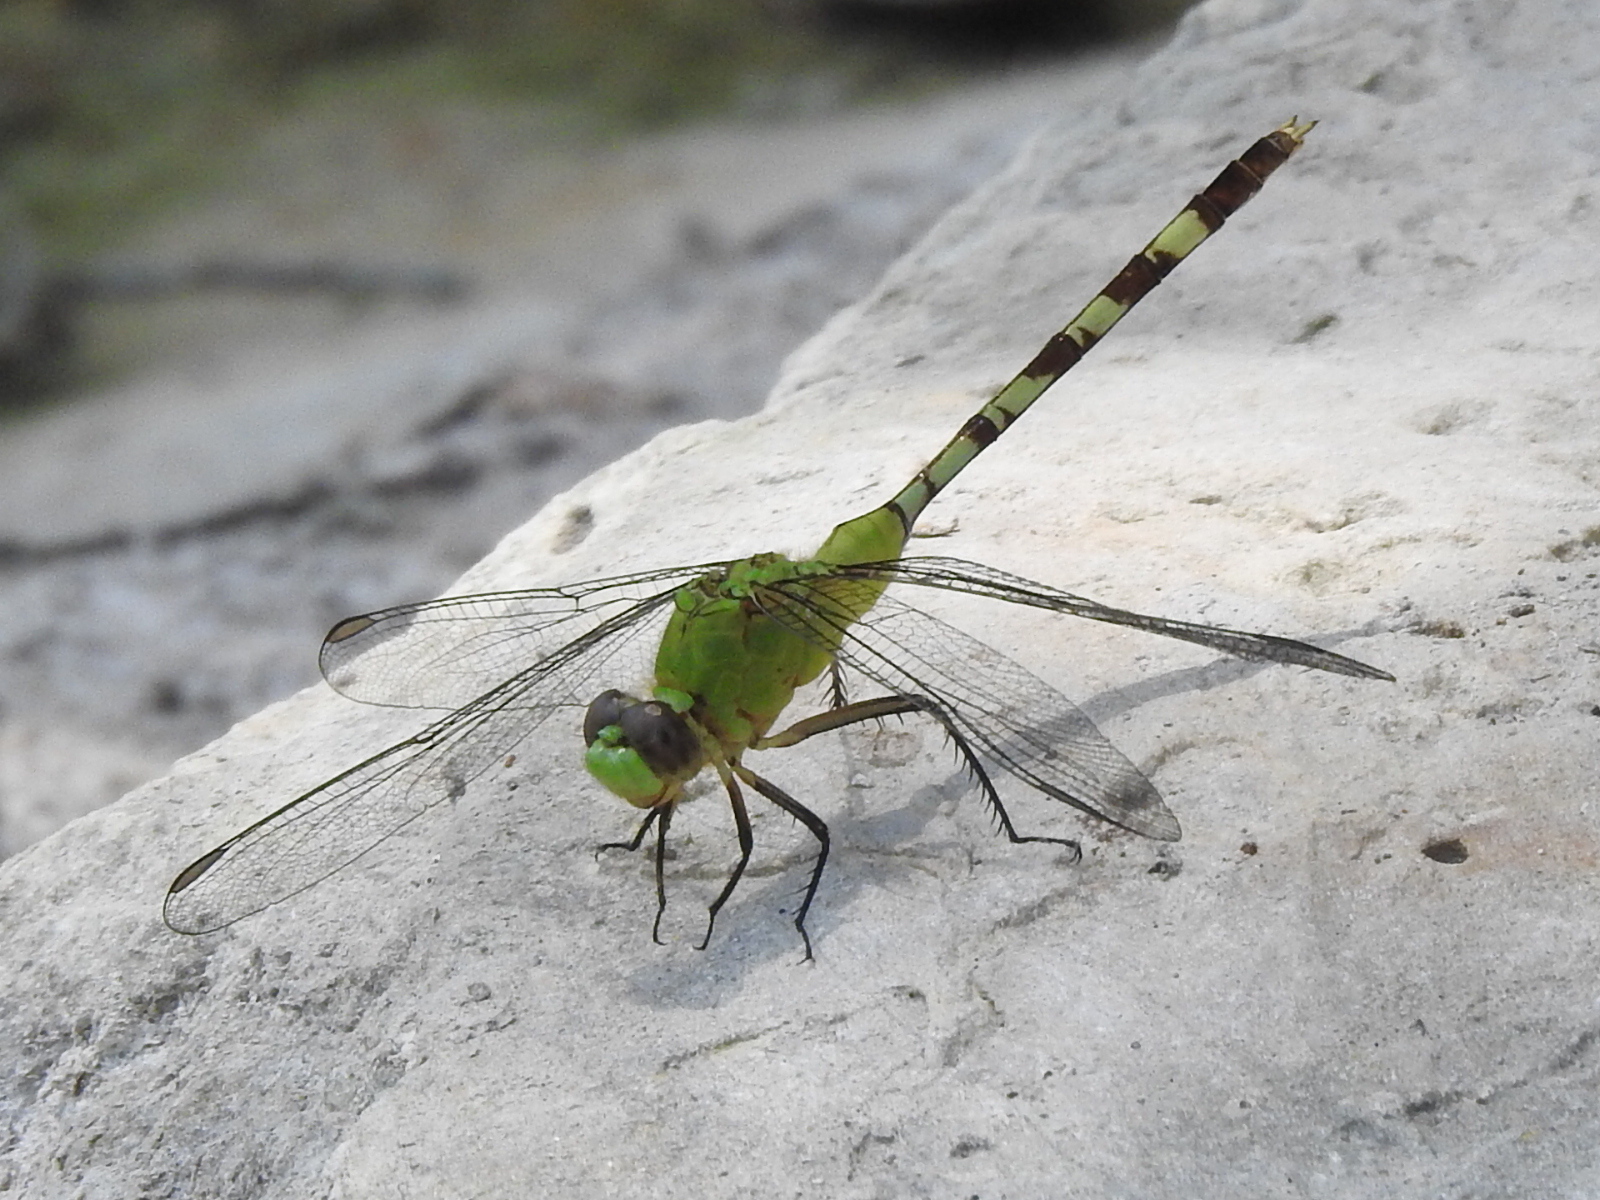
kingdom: Animalia
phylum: Arthropoda
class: Insecta
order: Odonata
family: Libellulidae
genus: Erythemis
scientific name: Erythemis vesiculosa
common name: Great pondhawk
